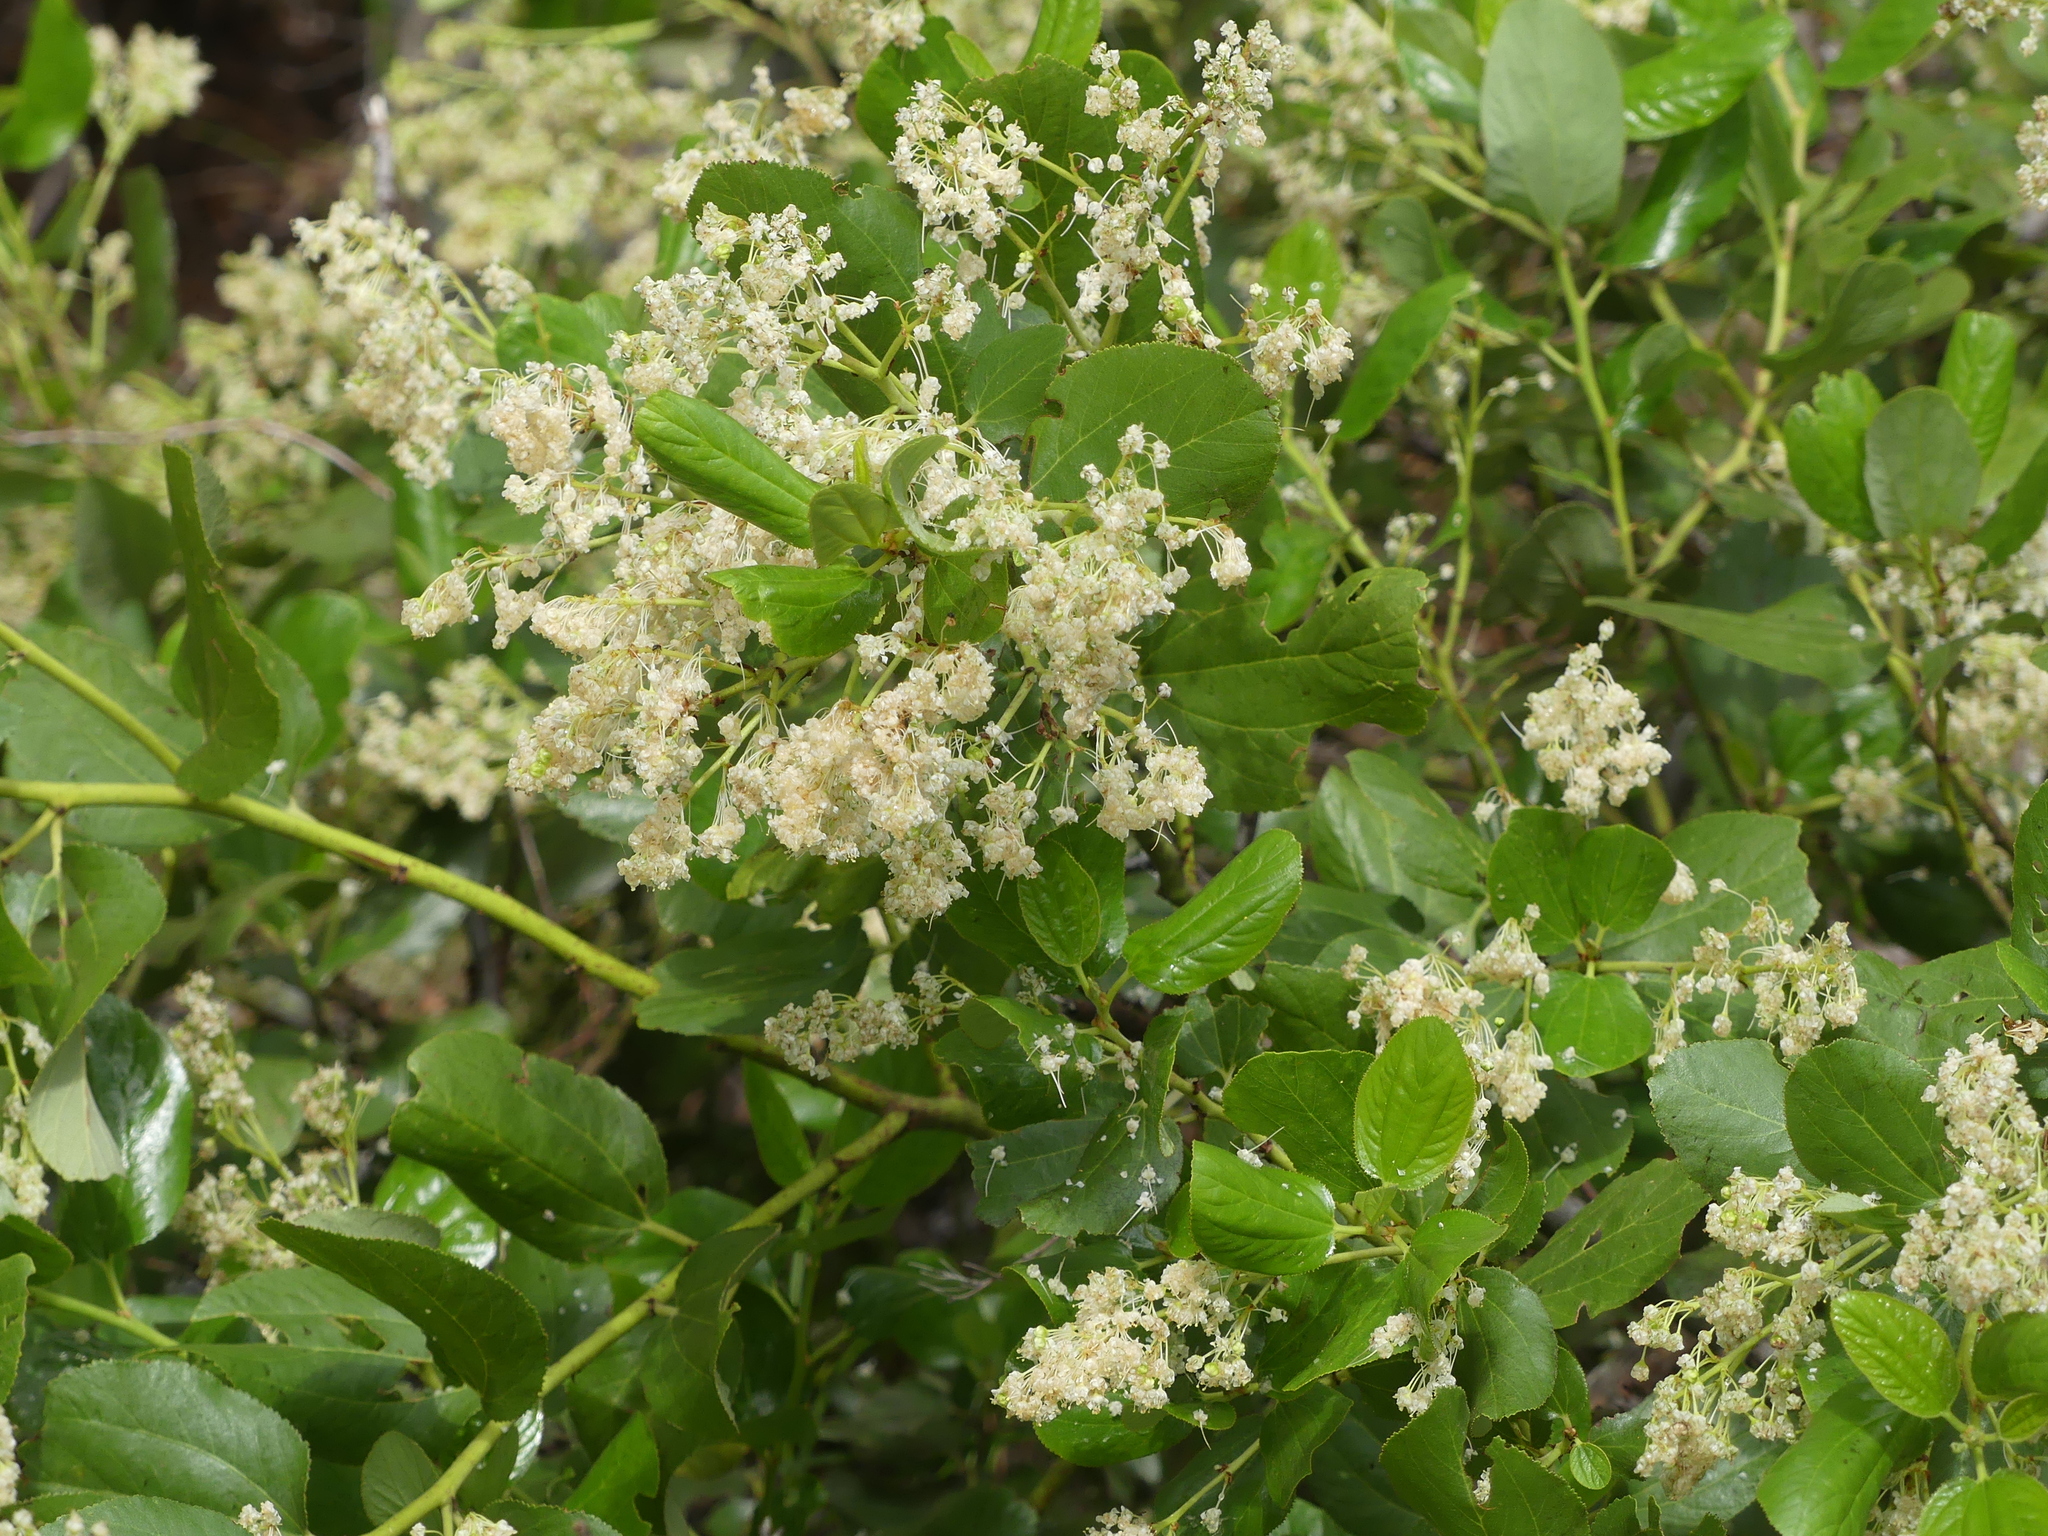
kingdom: Plantae
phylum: Tracheophyta
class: Magnoliopsida
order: Rosales
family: Rhamnaceae
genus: Ceanothus
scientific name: Ceanothus velutinus
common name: Snowbrush
